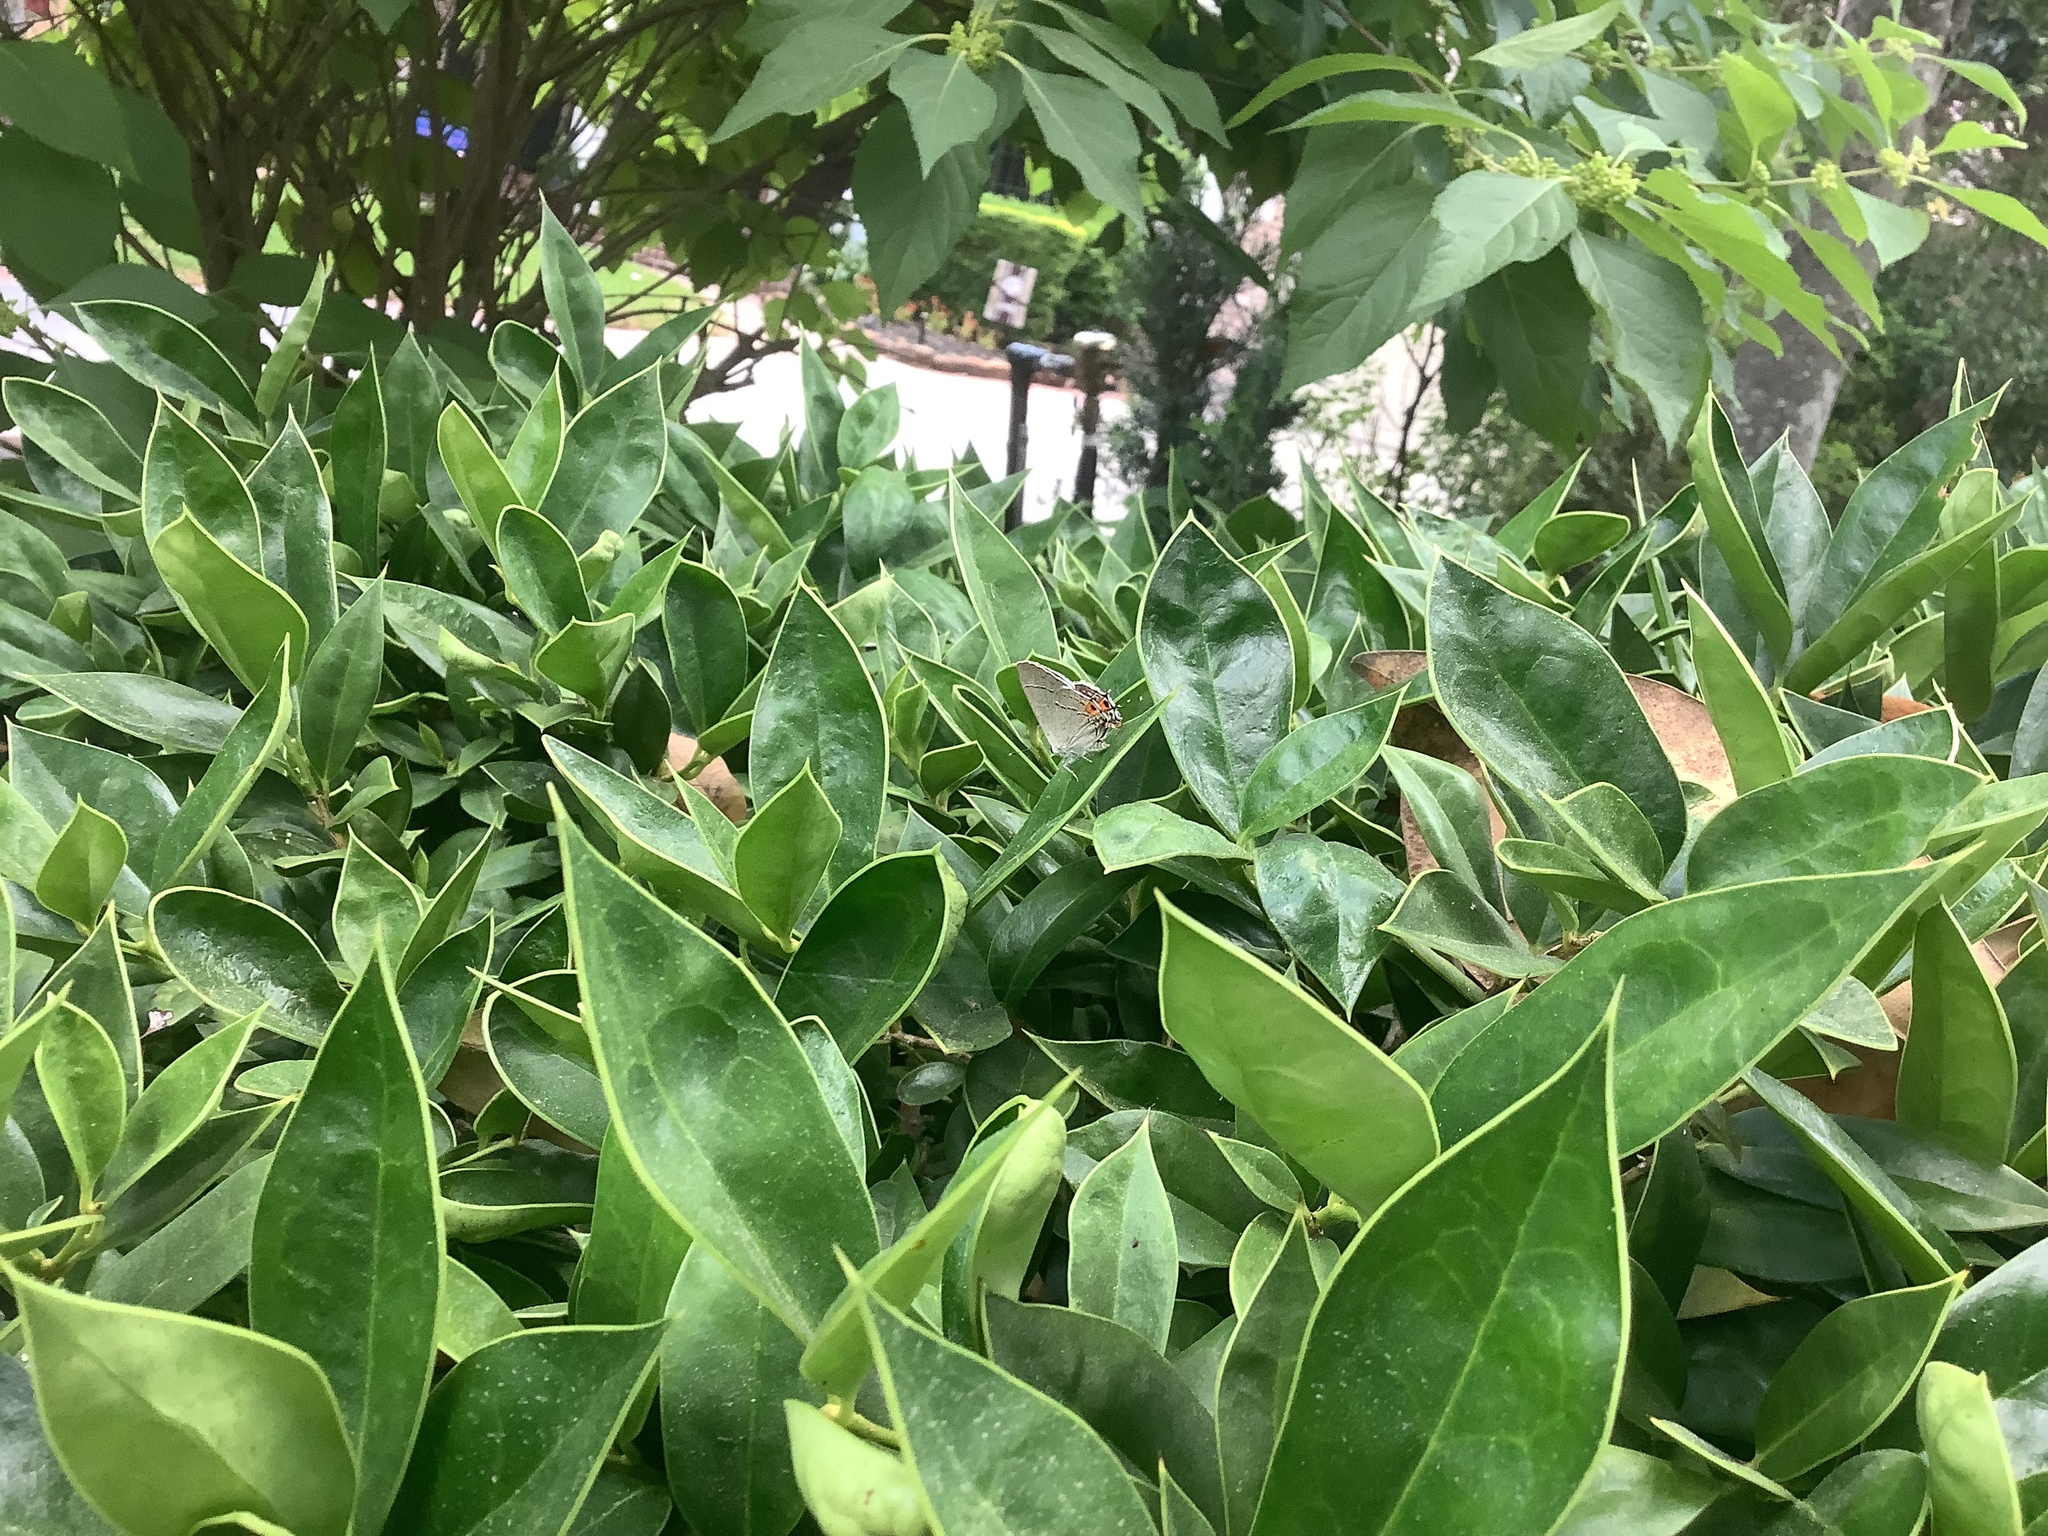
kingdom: Animalia
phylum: Arthropoda
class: Insecta
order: Lepidoptera
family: Lycaenidae
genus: Strymon
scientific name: Strymon melinus
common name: Gray hairstreak
